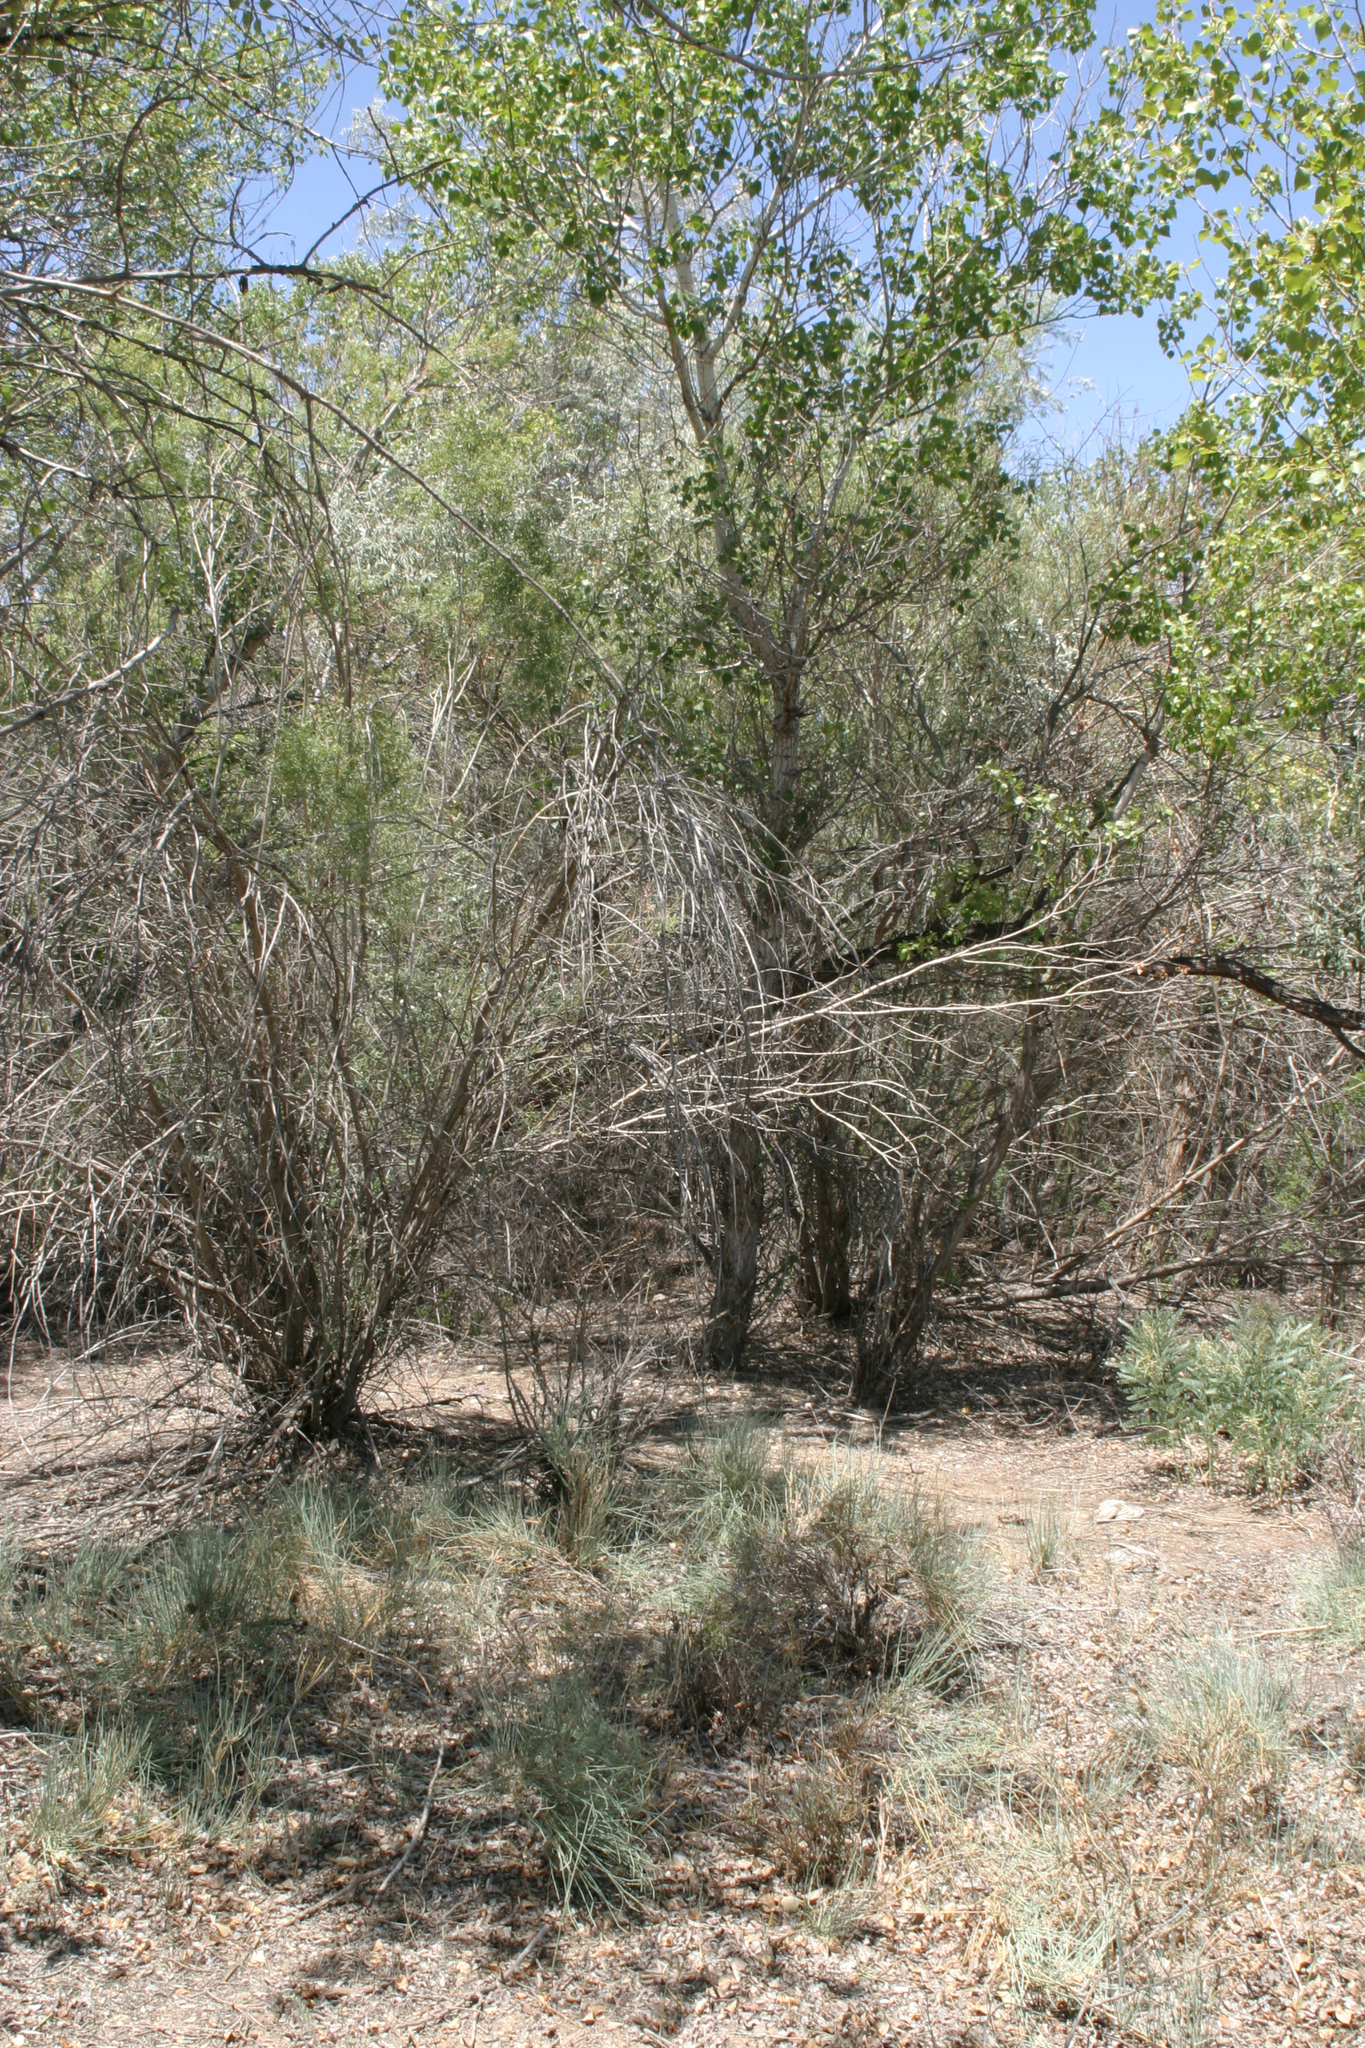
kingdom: Plantae
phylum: Tracheophyta
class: Magnoliopsida
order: Malpighiales
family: Salicaceae
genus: Populus
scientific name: Populus euphratica
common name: Euphrates poplar
